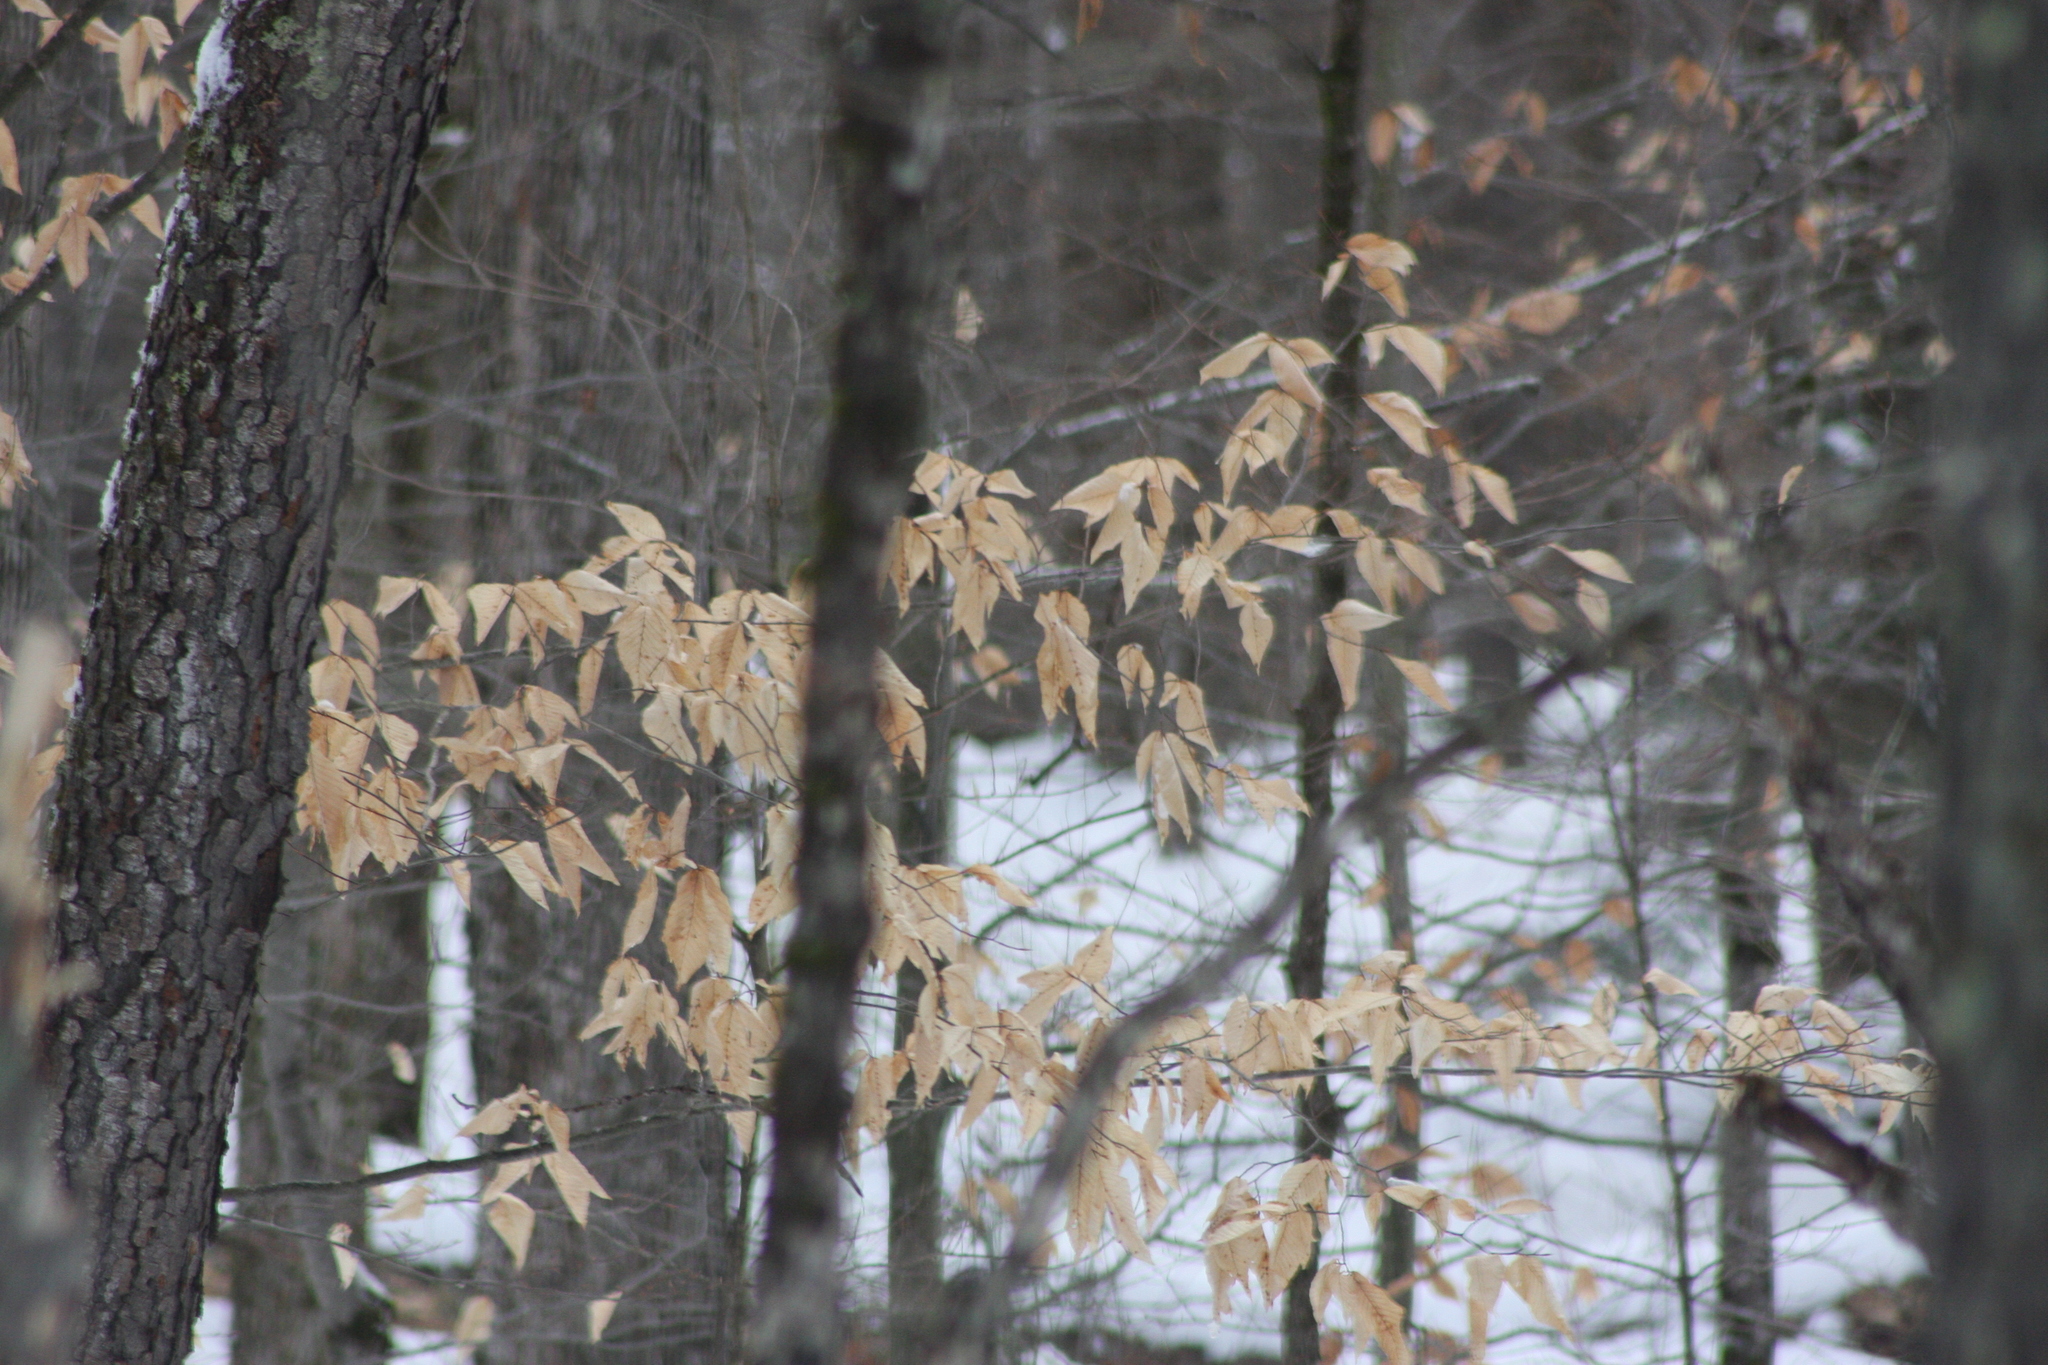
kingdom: Plantae
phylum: Tracheophyta
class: Magnoliopsida
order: Fagales
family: Fagaceae
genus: Fagus
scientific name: Fagus grandifolia
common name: American beech
